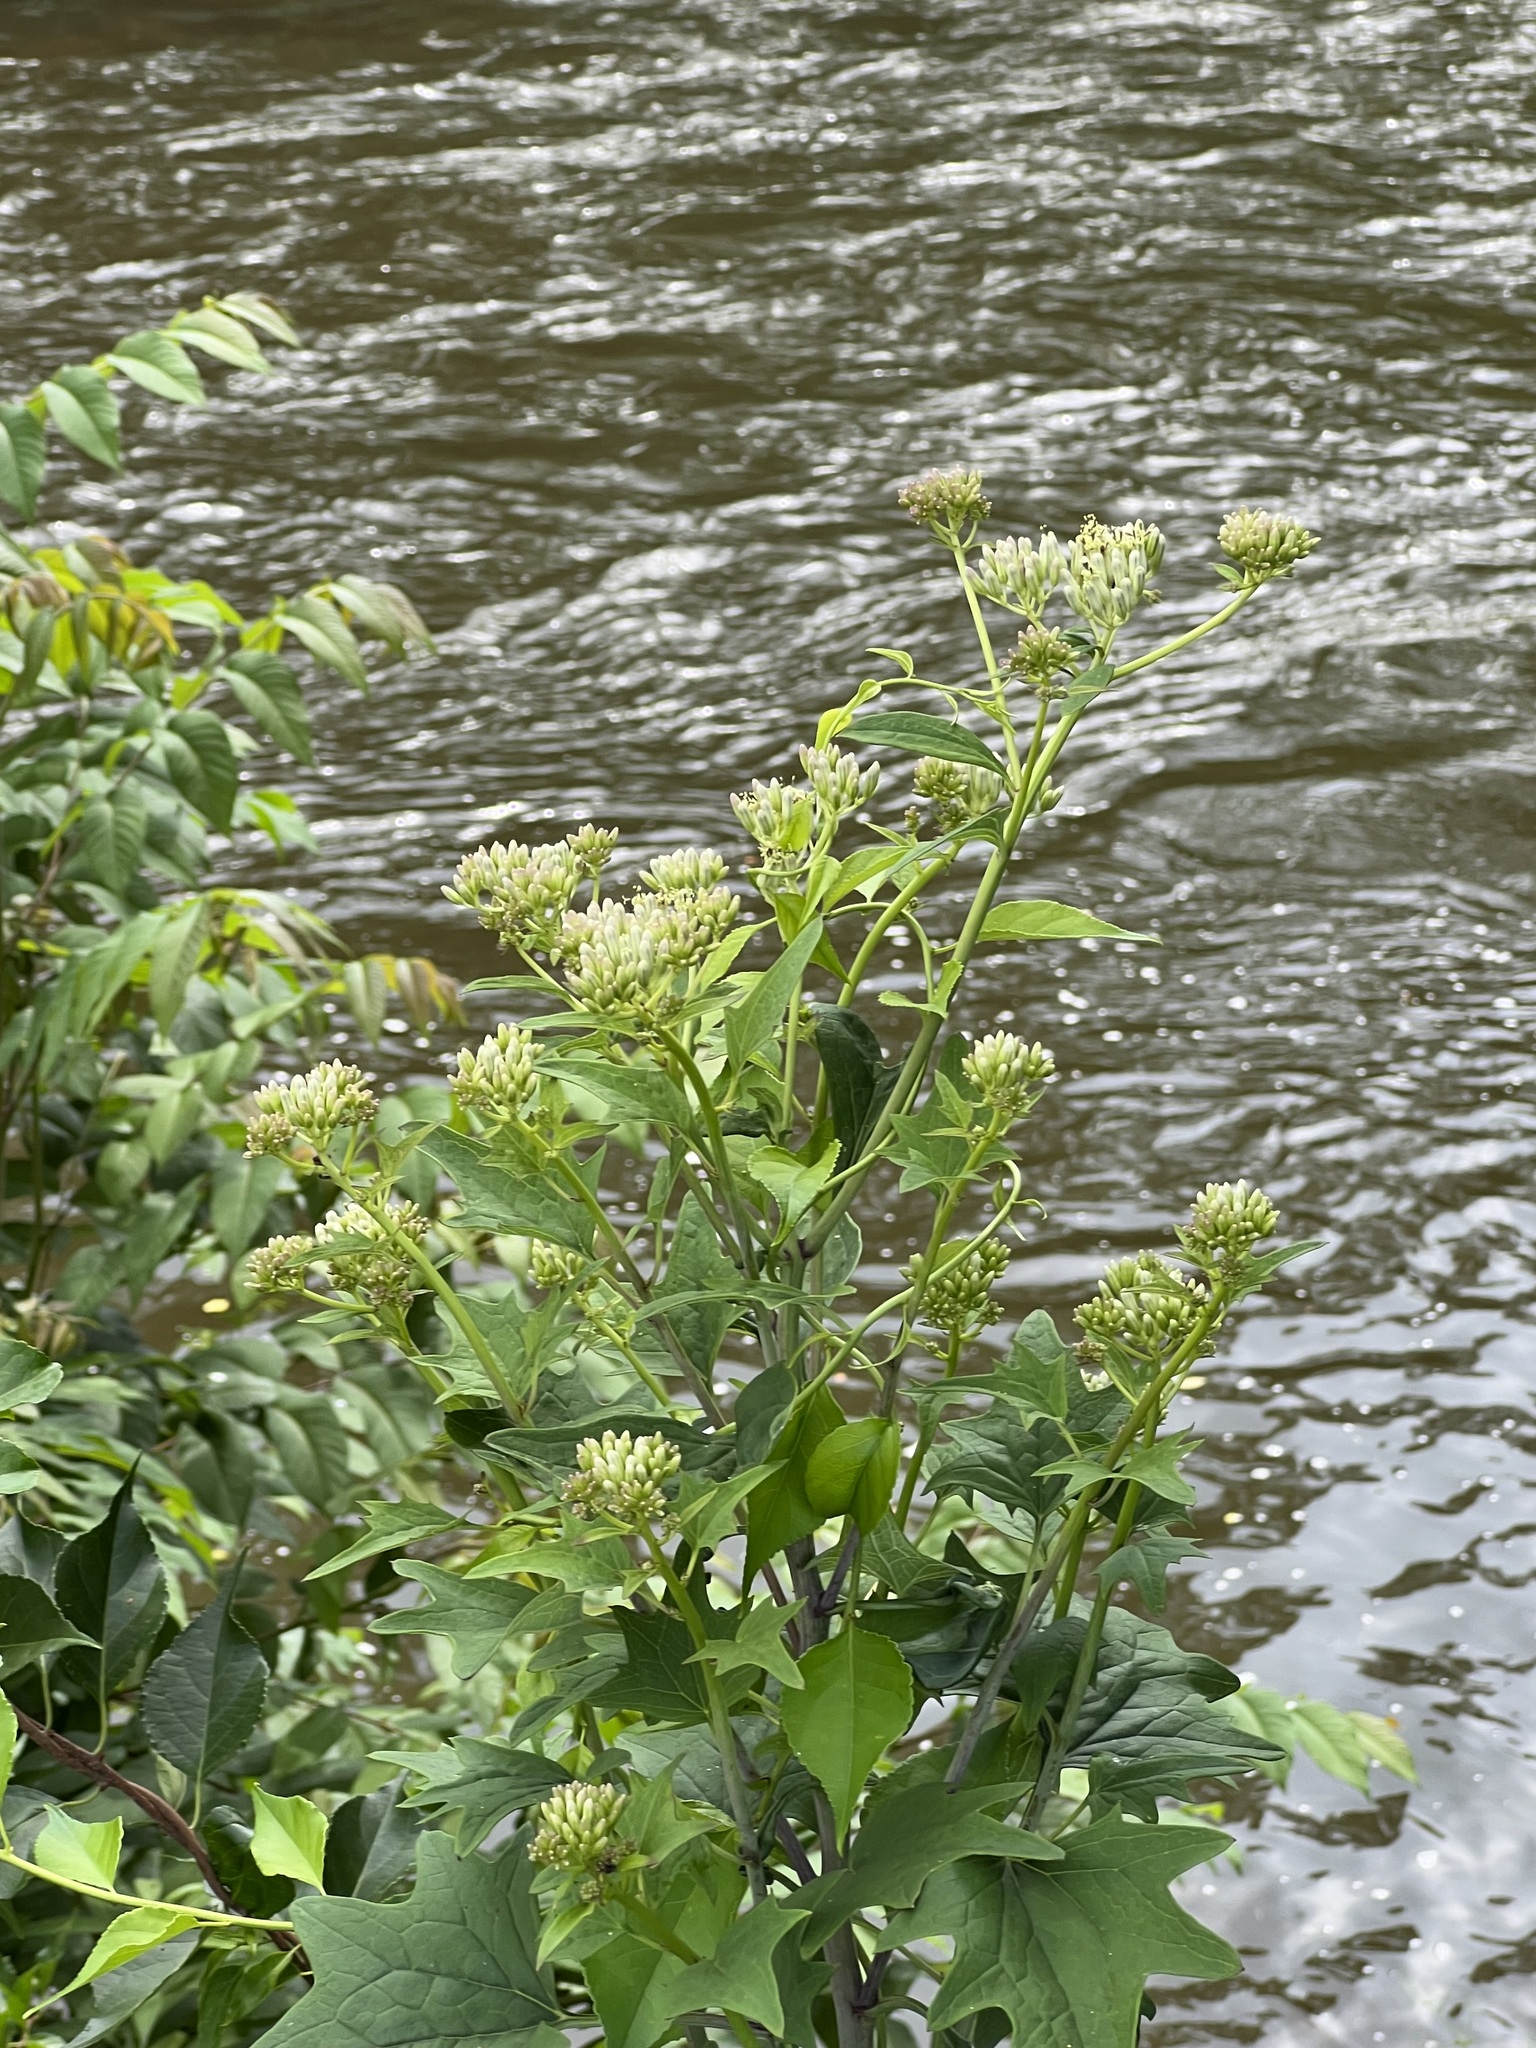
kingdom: Plantae
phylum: Tracheophyta
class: Magnoliopsida
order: Asterales
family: Asteraceae
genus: Arnoglossum
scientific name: Arnoglossum atriplicifolium
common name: Pale indian-plantain
